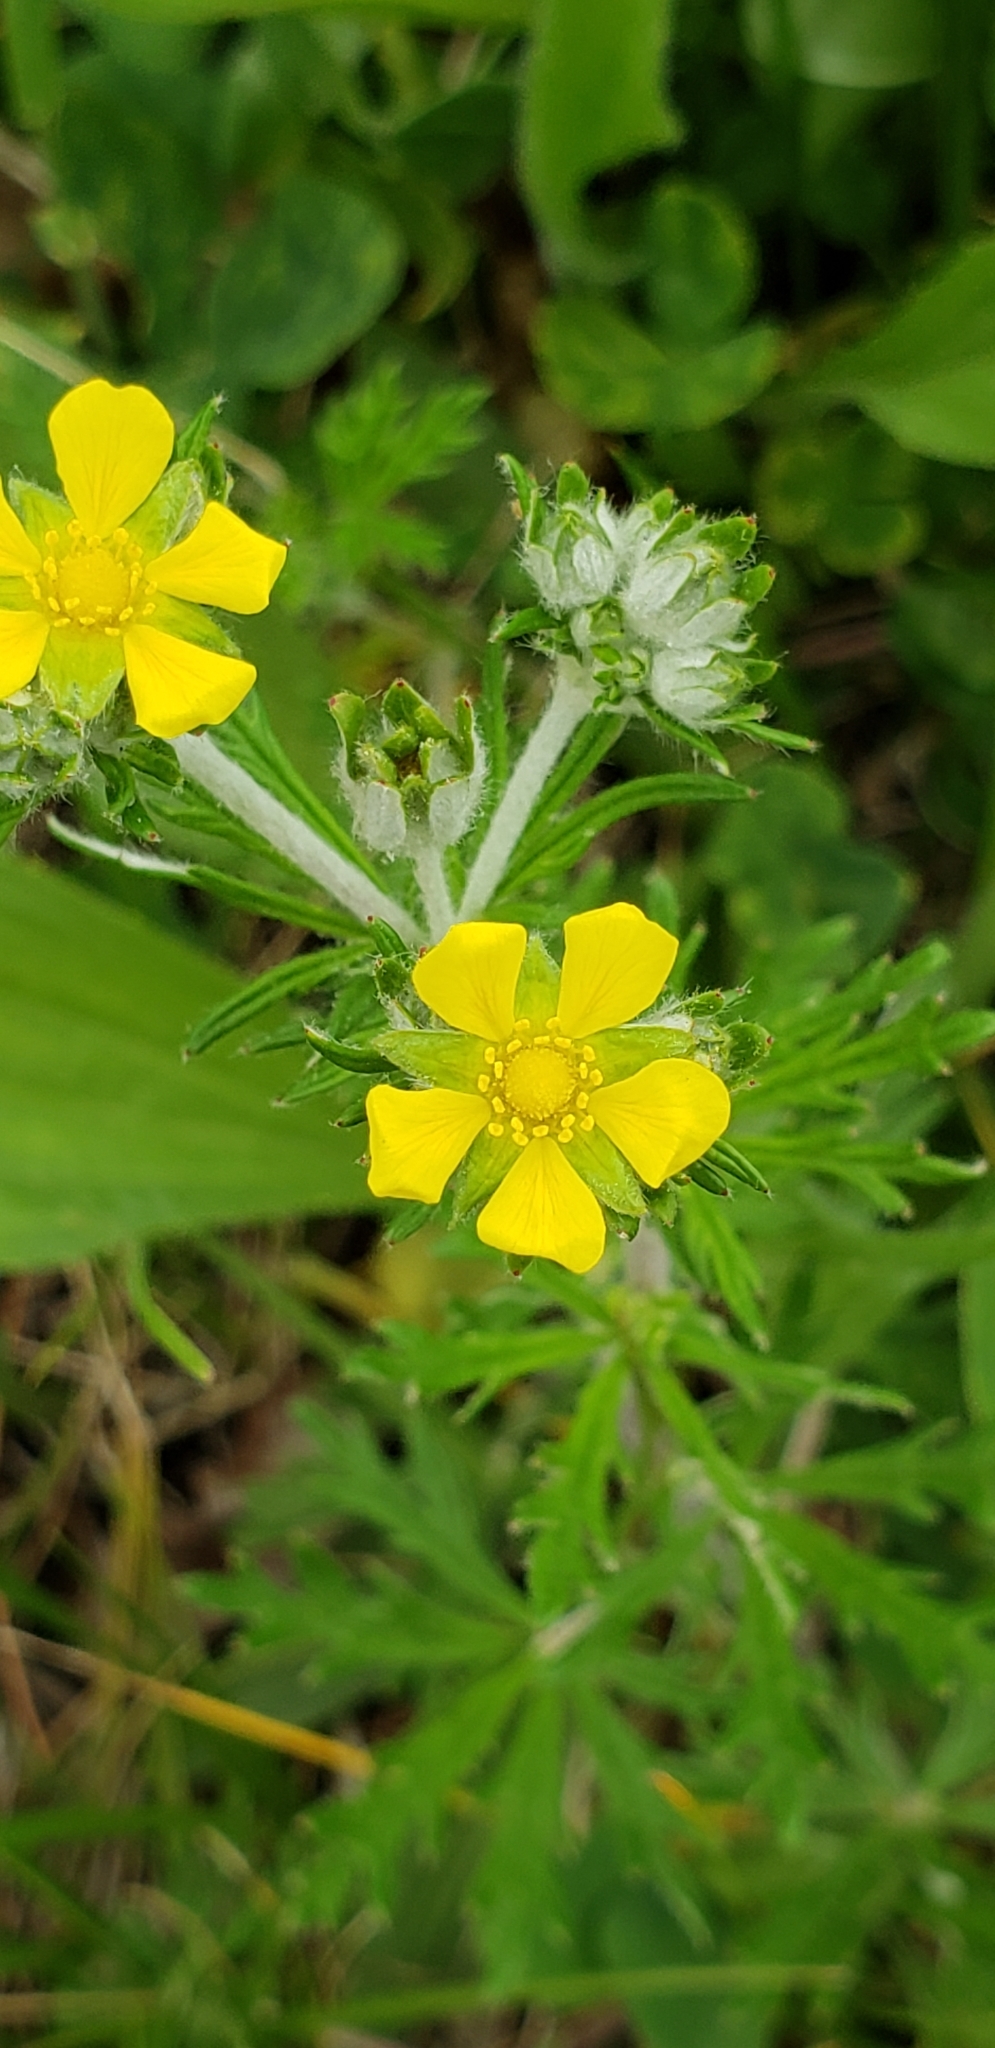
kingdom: Plantae
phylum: Tracheophyta
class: Magnoliopsida
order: Rosales
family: Rosaceae
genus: Potentilla
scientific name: Potentilla argentea
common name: Hoary cinquefoil
